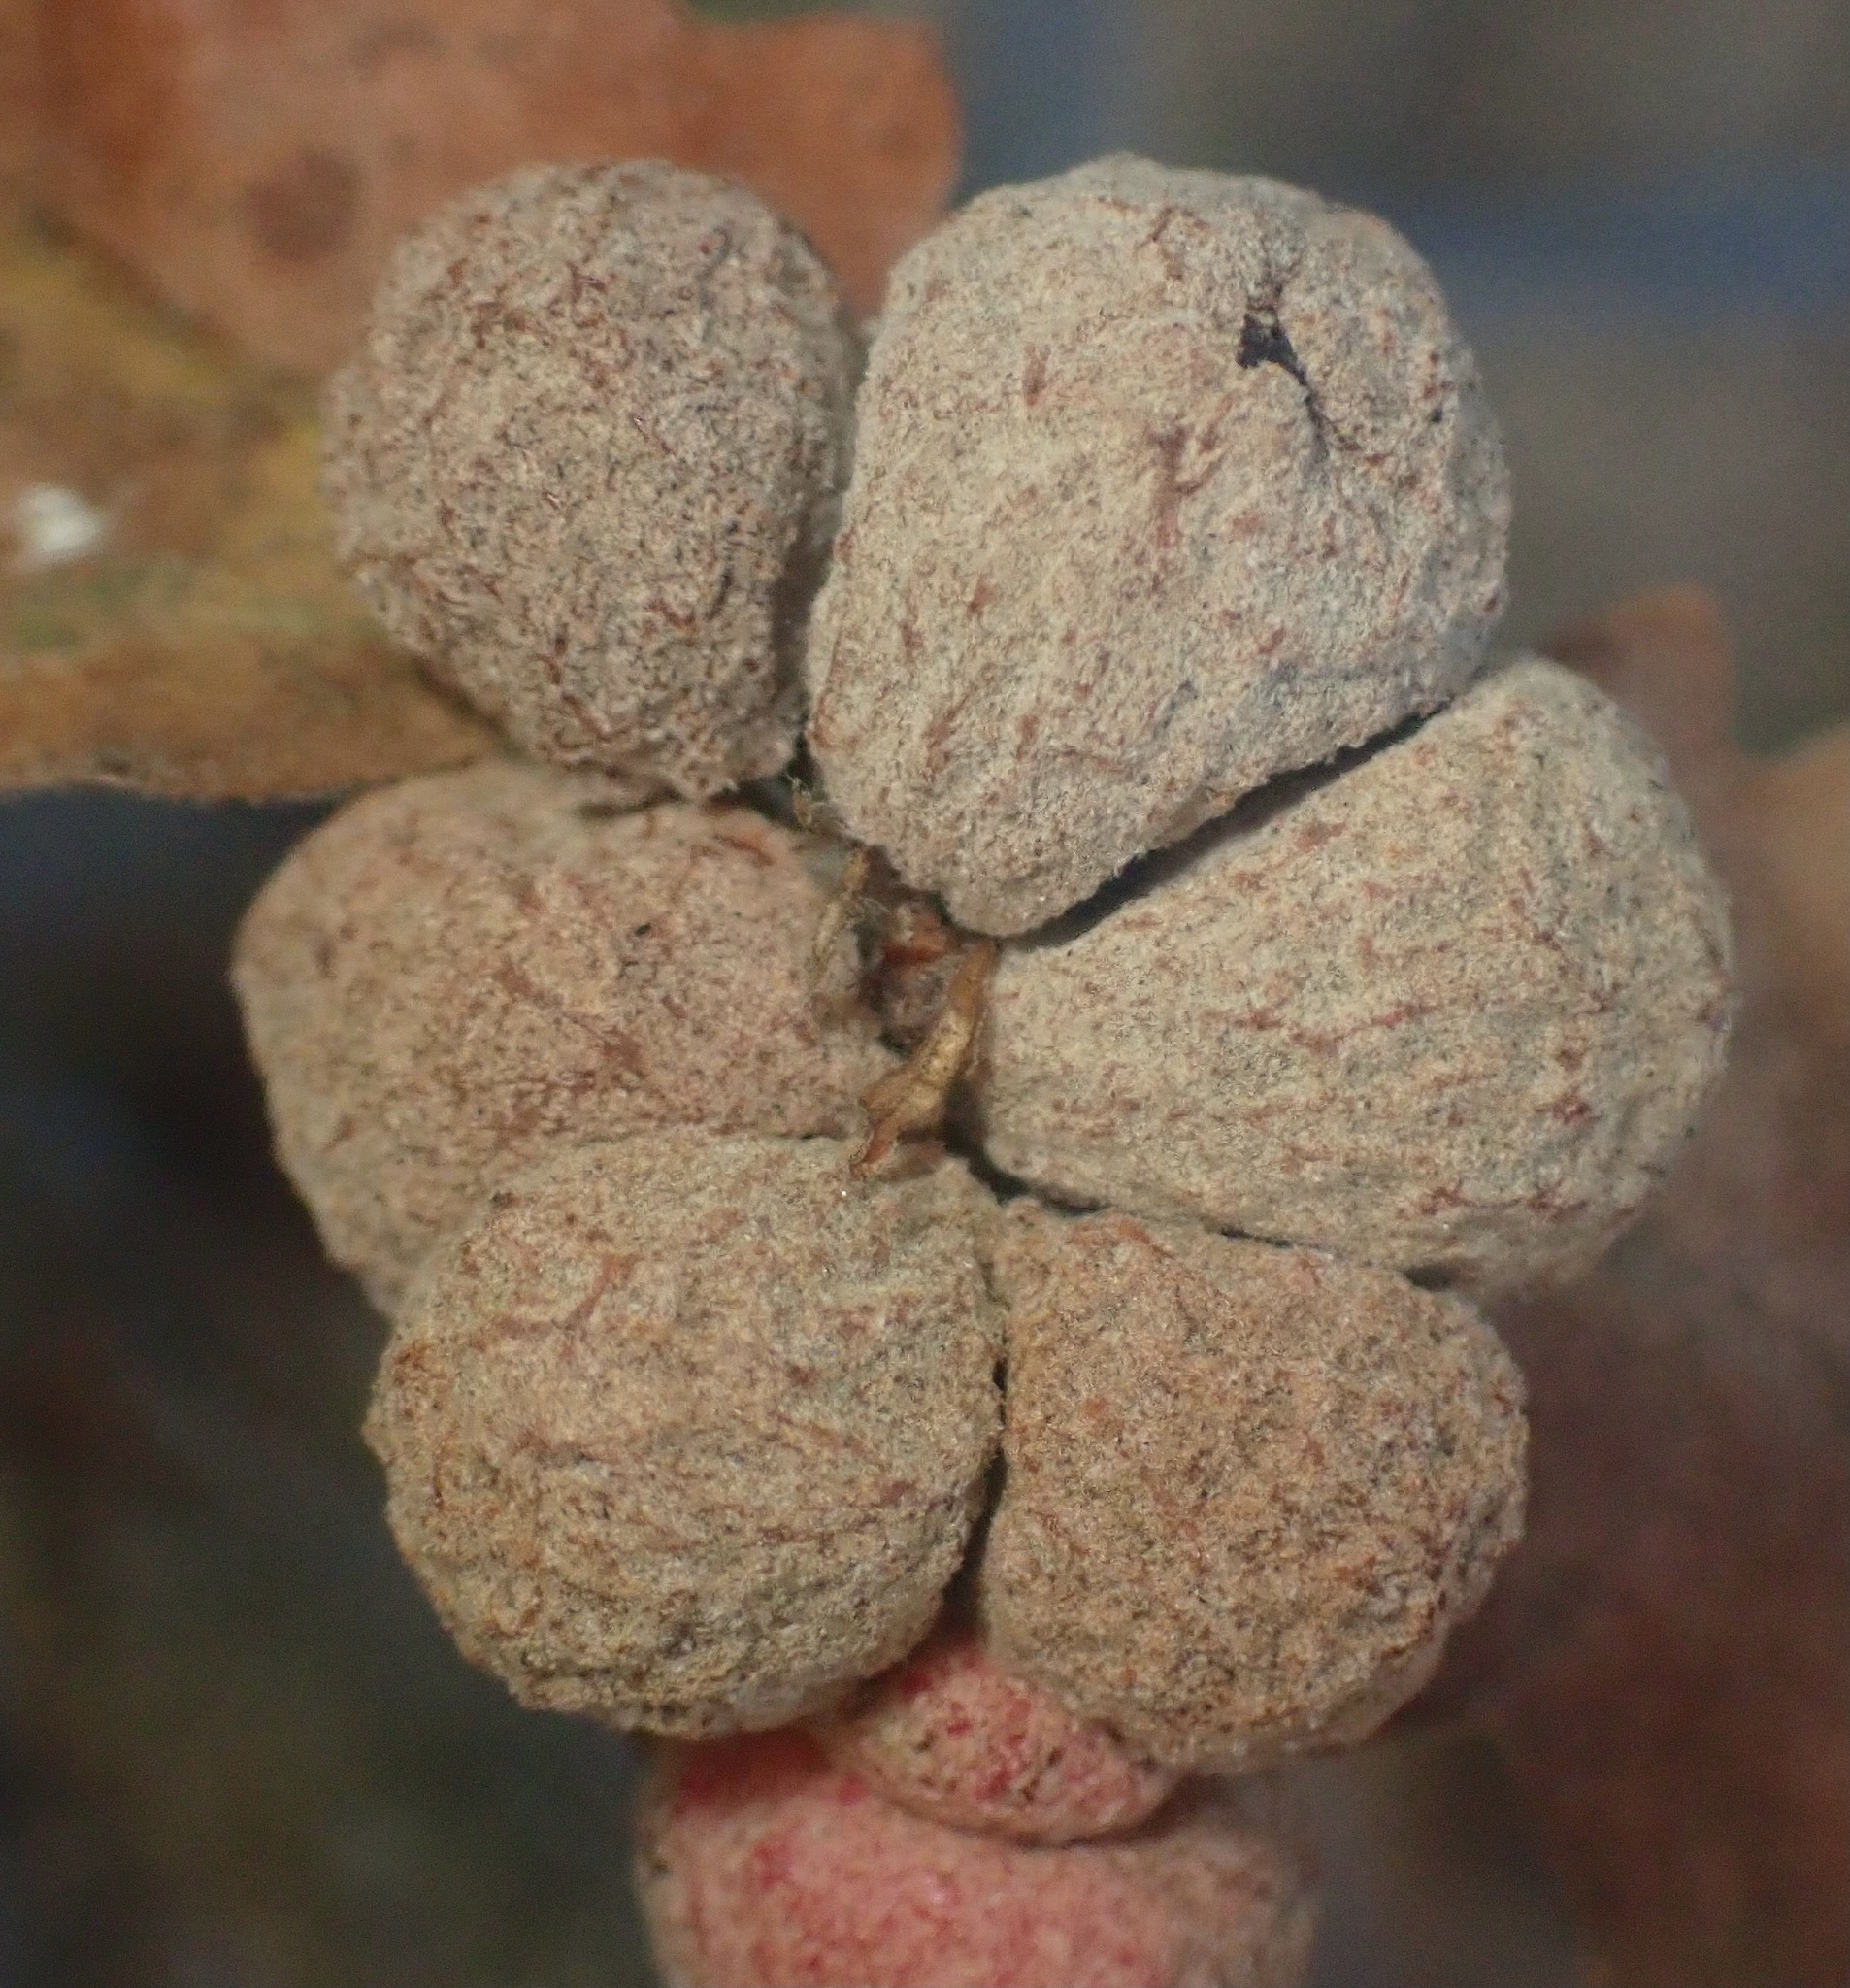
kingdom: Animalia
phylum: Arthropoda
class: Insecta
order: Hymenoptera
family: Cynipidae
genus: Cynips
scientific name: Cynips conspicua
